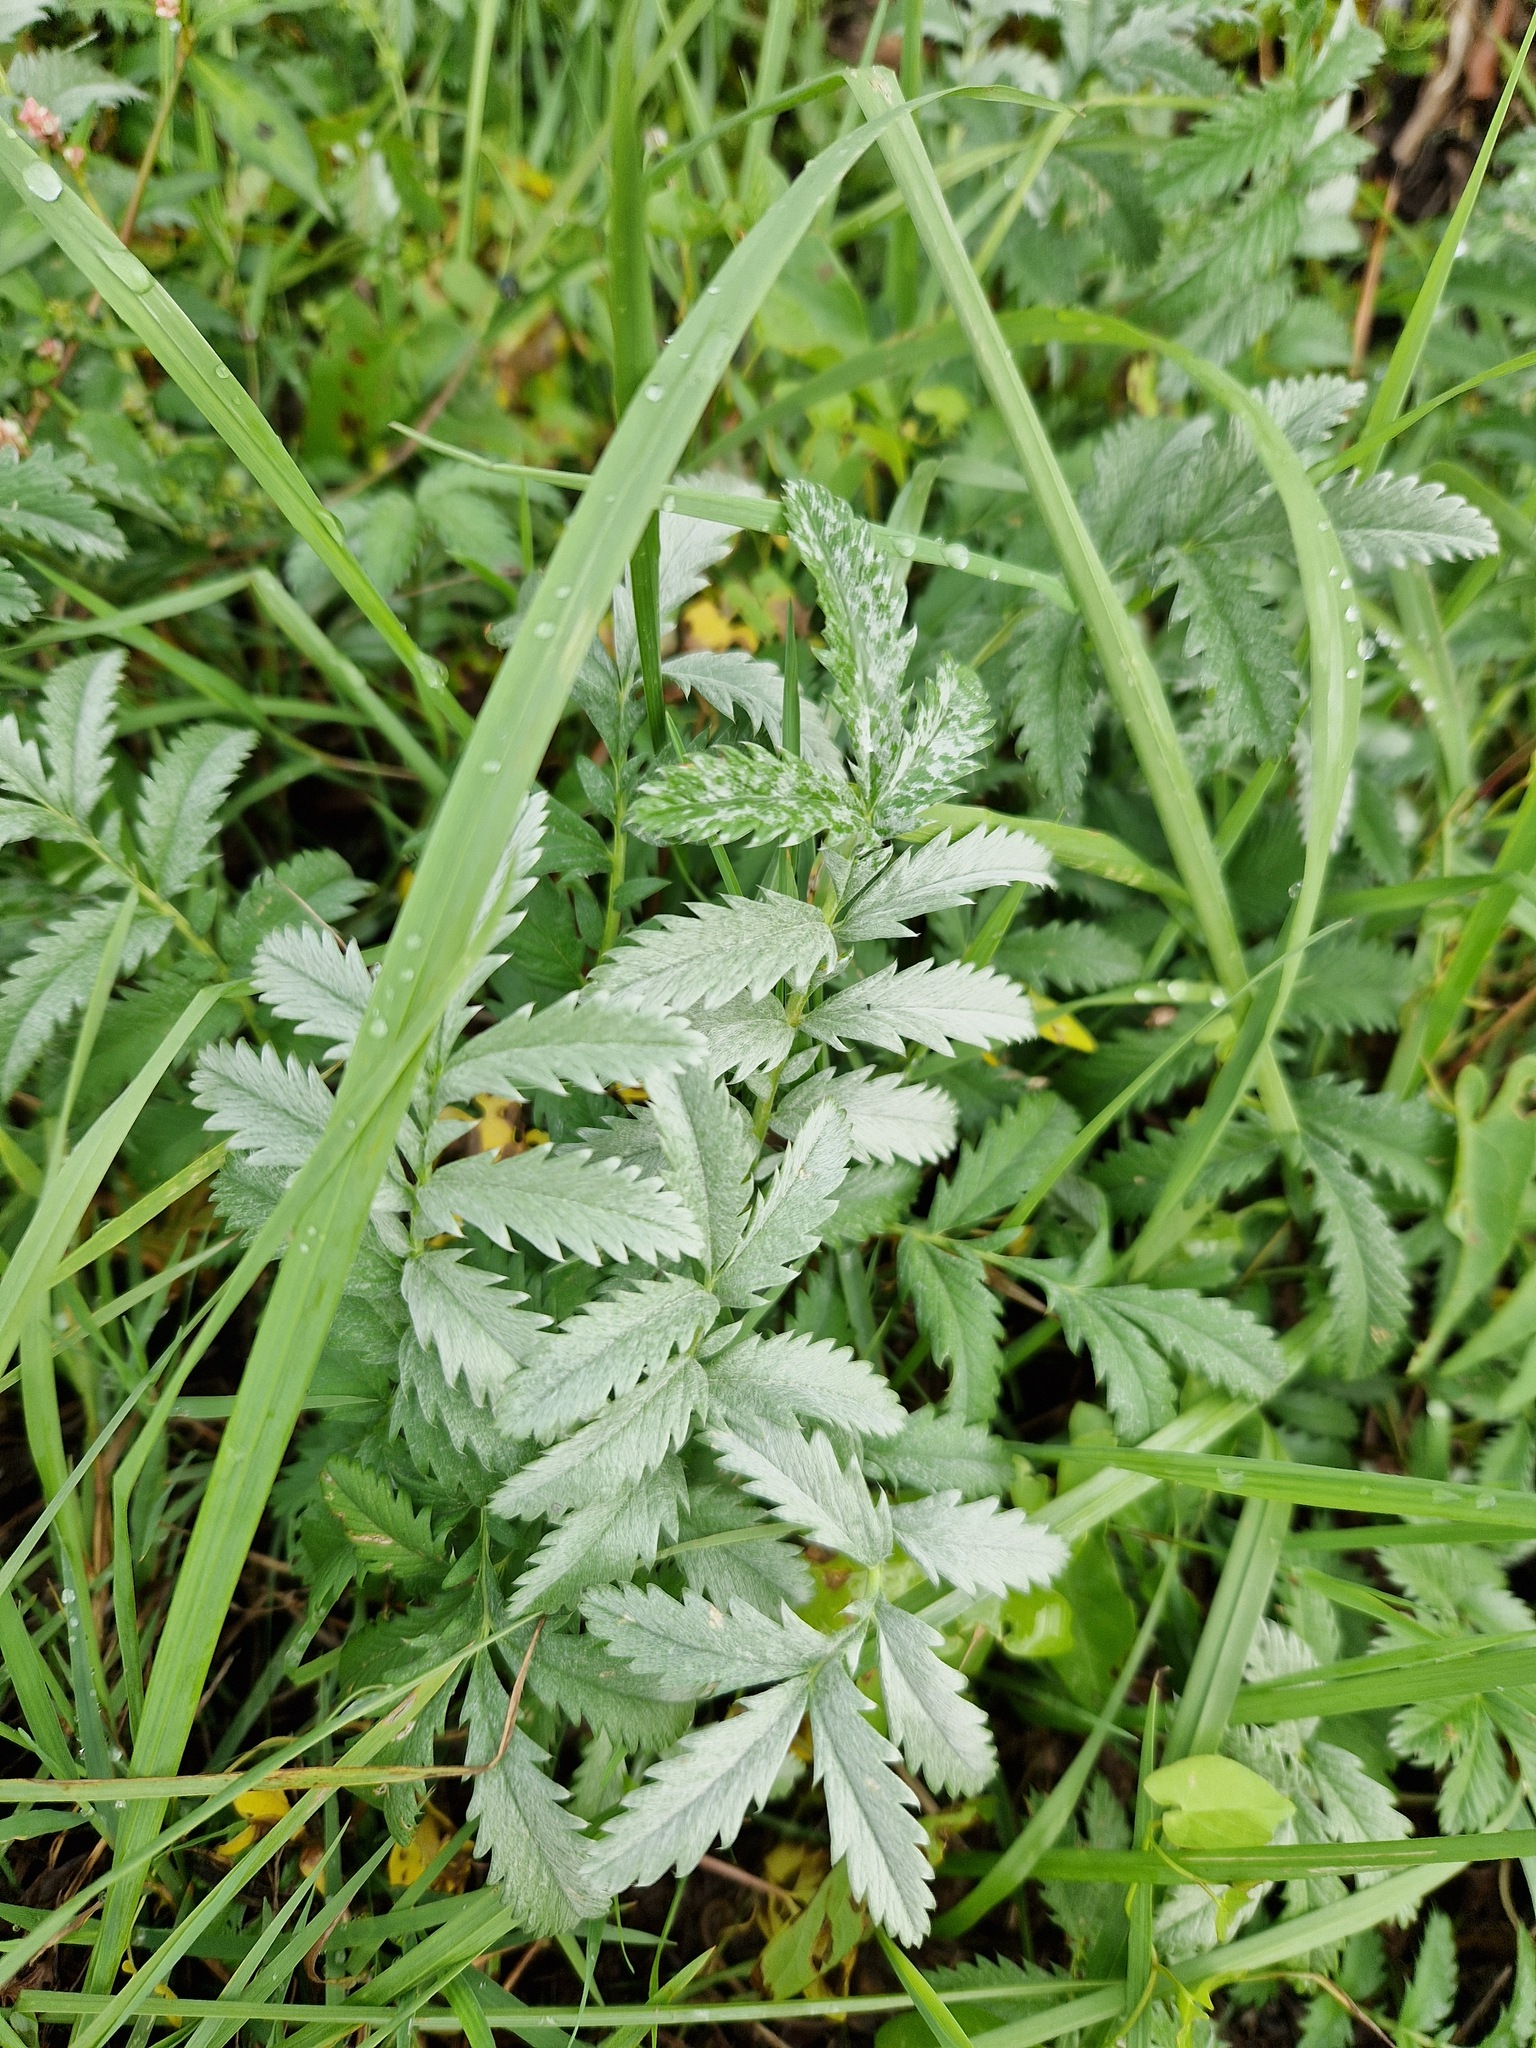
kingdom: Plantae
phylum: Tracheophyta
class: Magnoliopsida
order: Rosales
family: Rosaceae
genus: Argentina
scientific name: Argentina anserina
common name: Common silverweed
